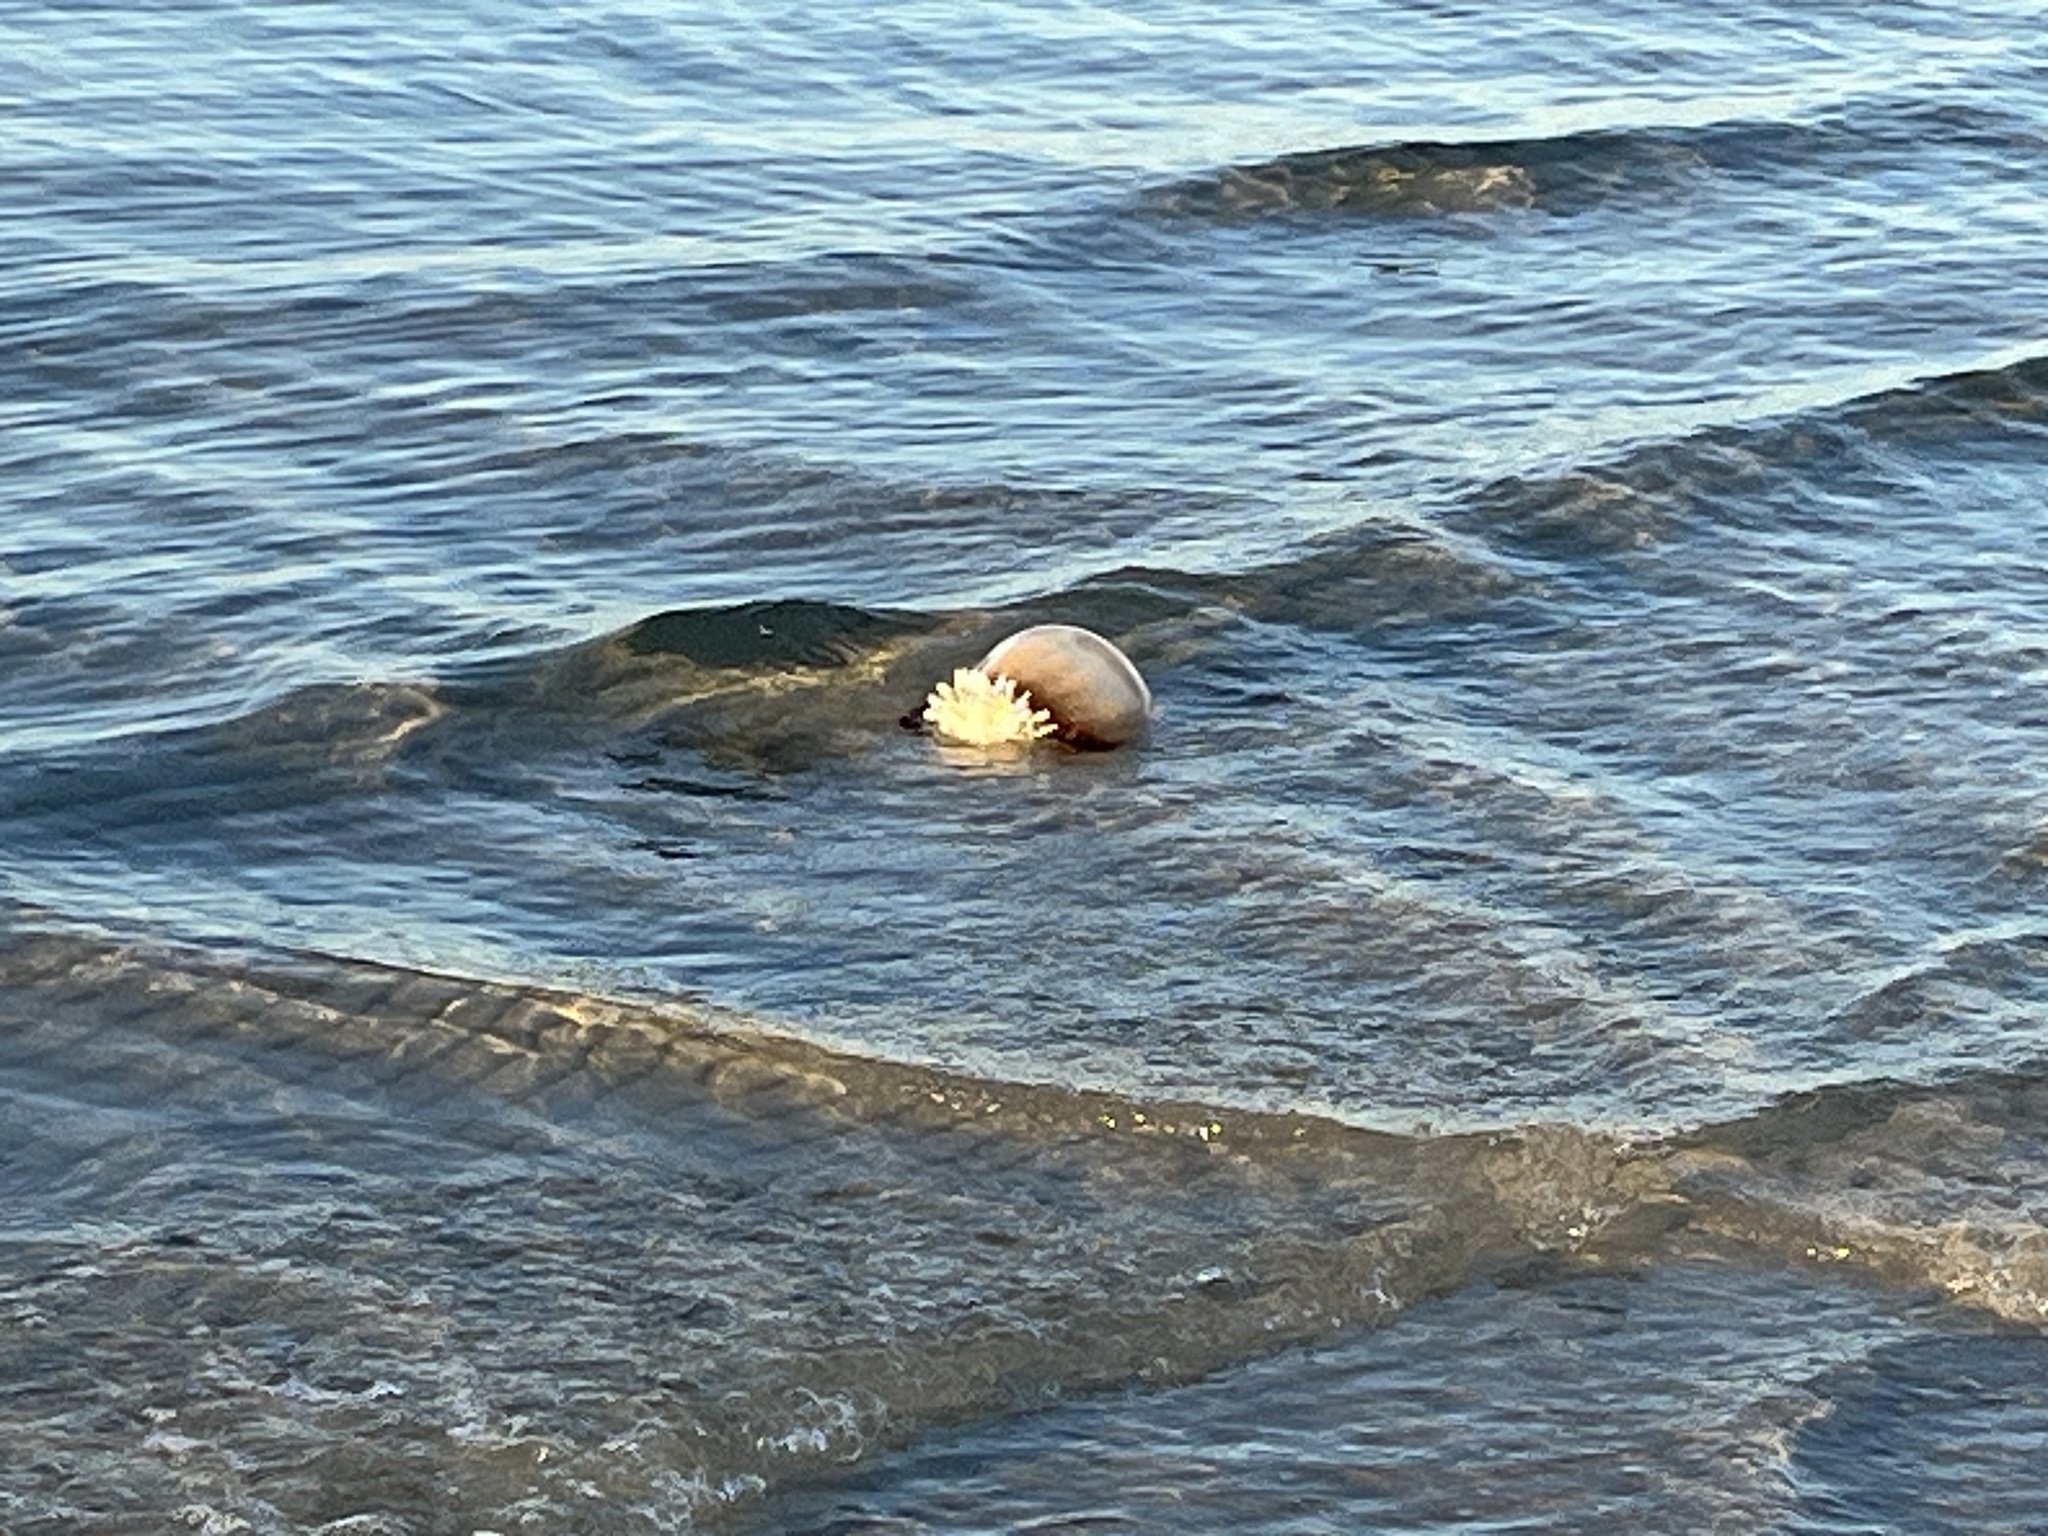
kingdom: Animalia
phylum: Cnidaria
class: Scyphozoa
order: Rhizostomeae
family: Stomolophidae
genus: Stomolophus
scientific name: Stomolophus meleagris
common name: Cabbagehead
